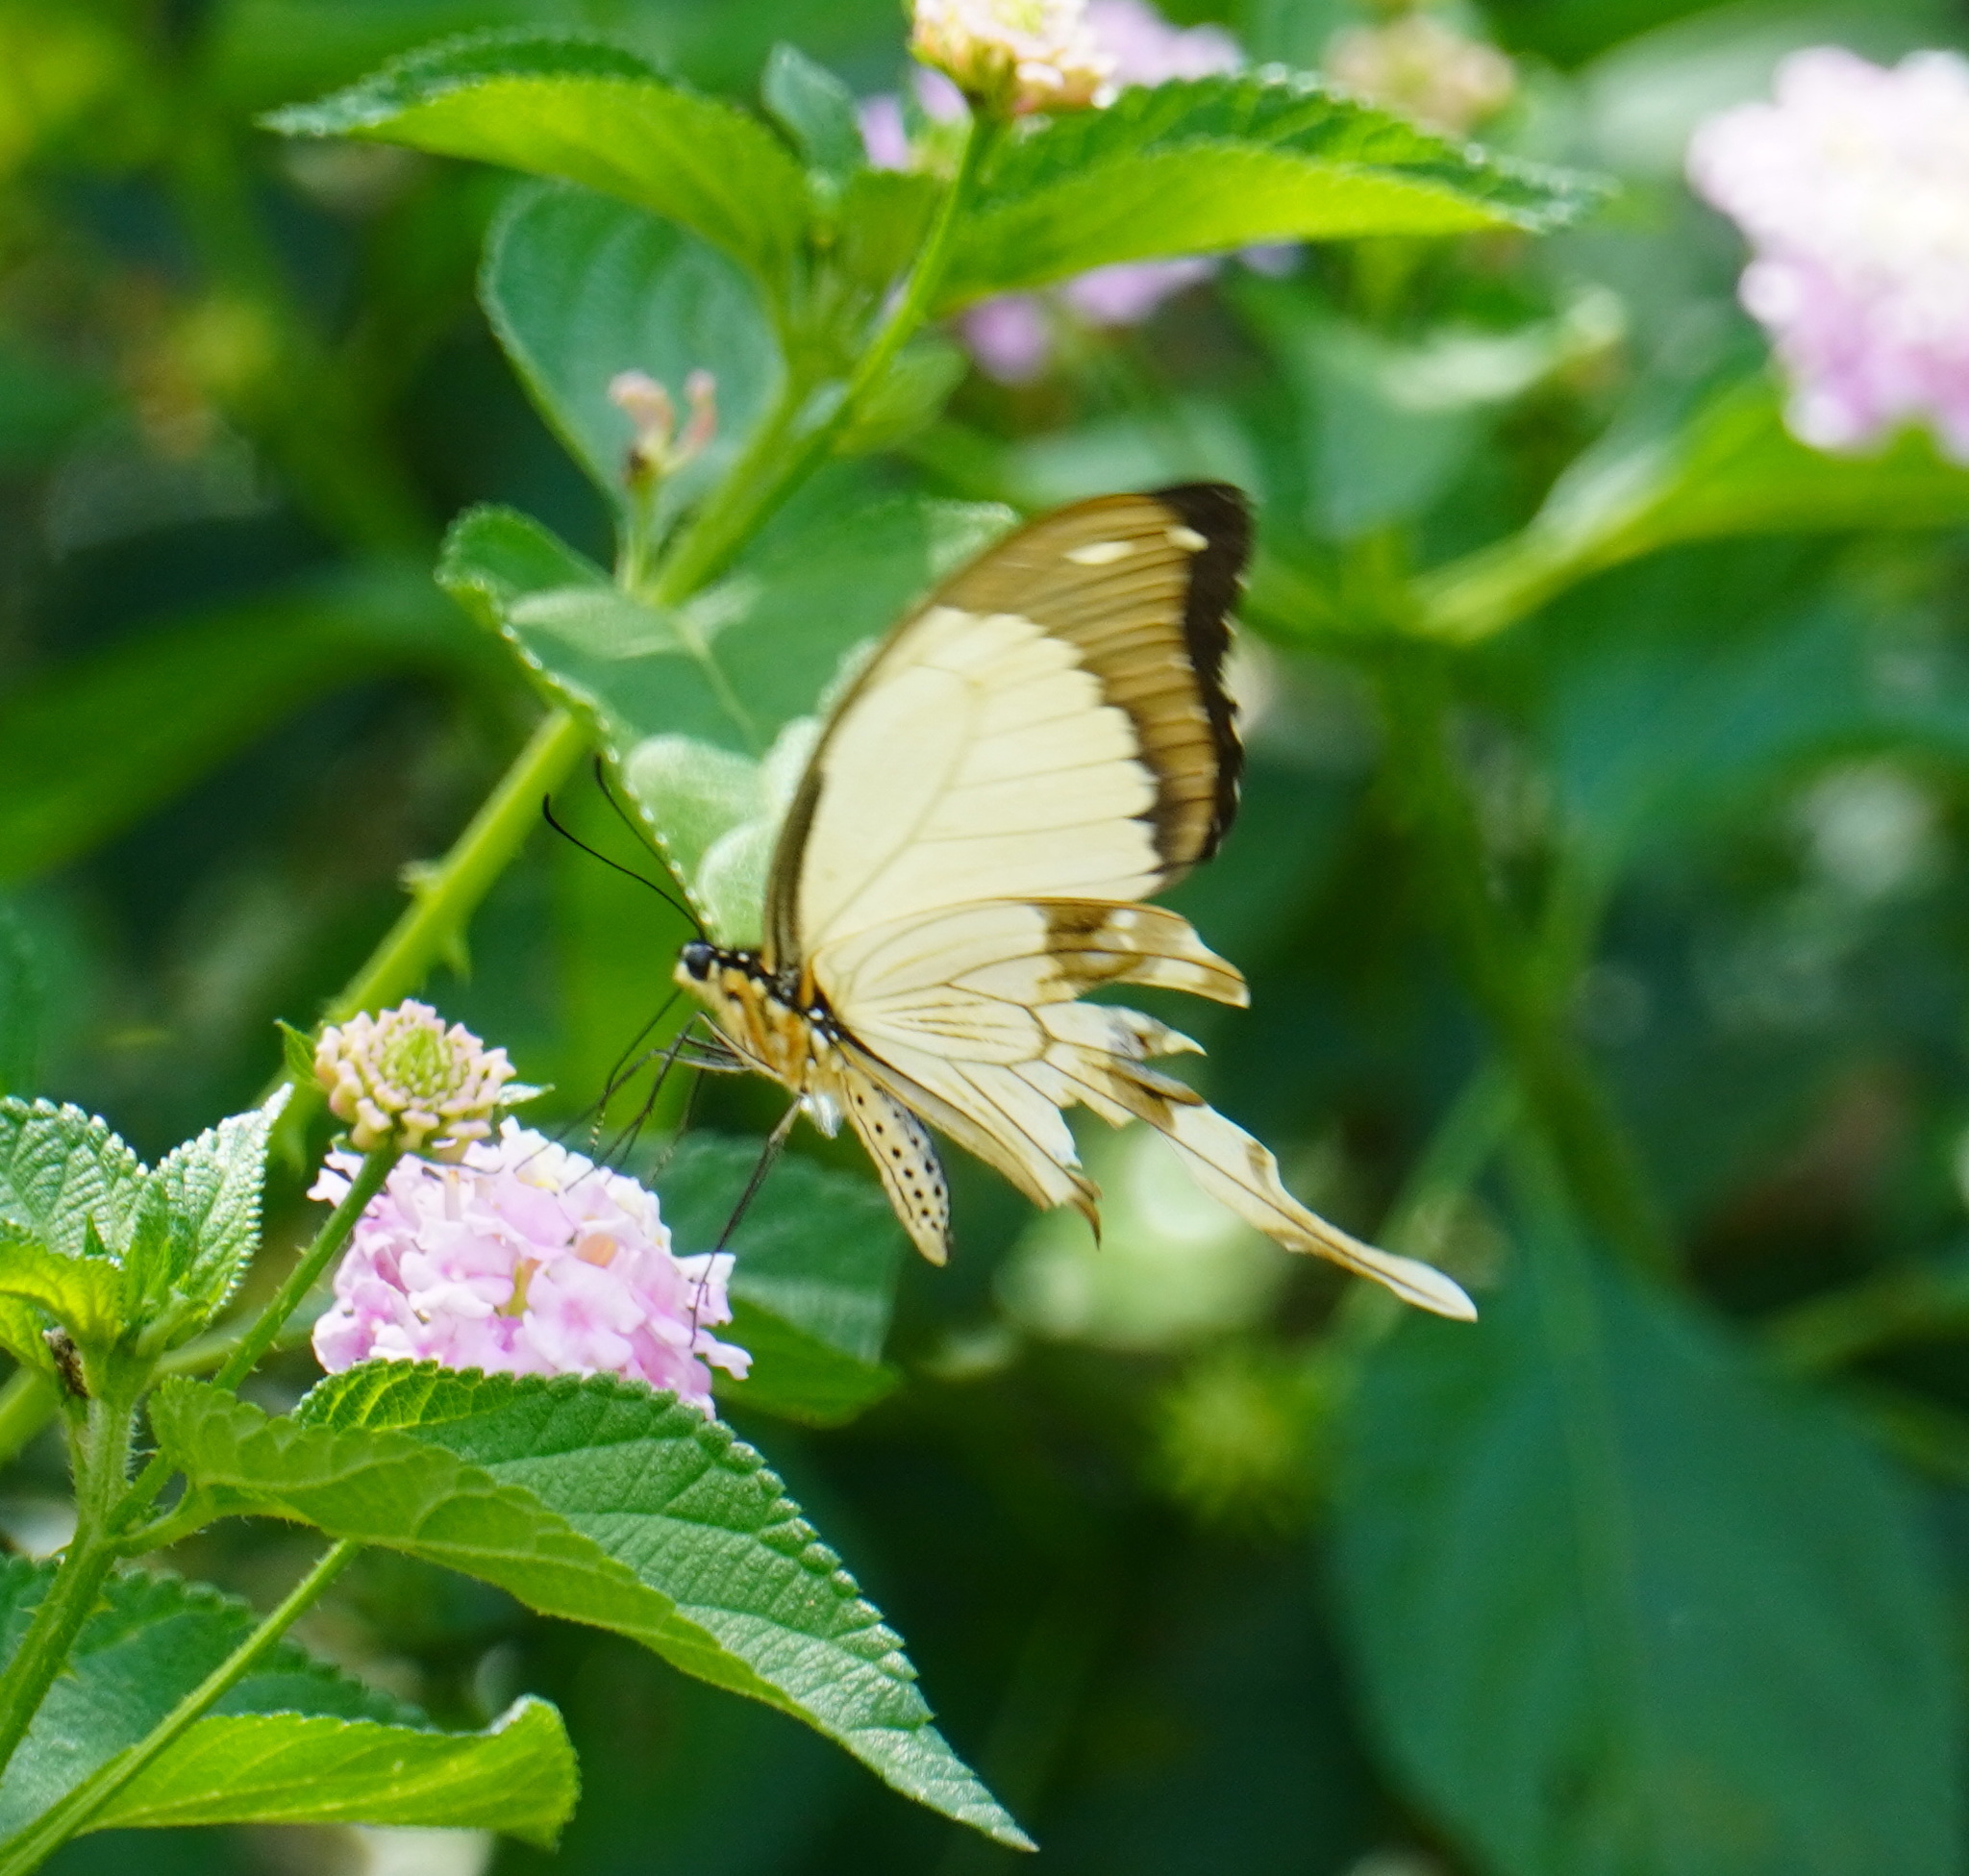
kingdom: Animalia
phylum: Arthropoda
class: Insecta
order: Lepidoptera
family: Papilionidae
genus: Papilio
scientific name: Papilio dardanus
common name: Flying handkerchief
